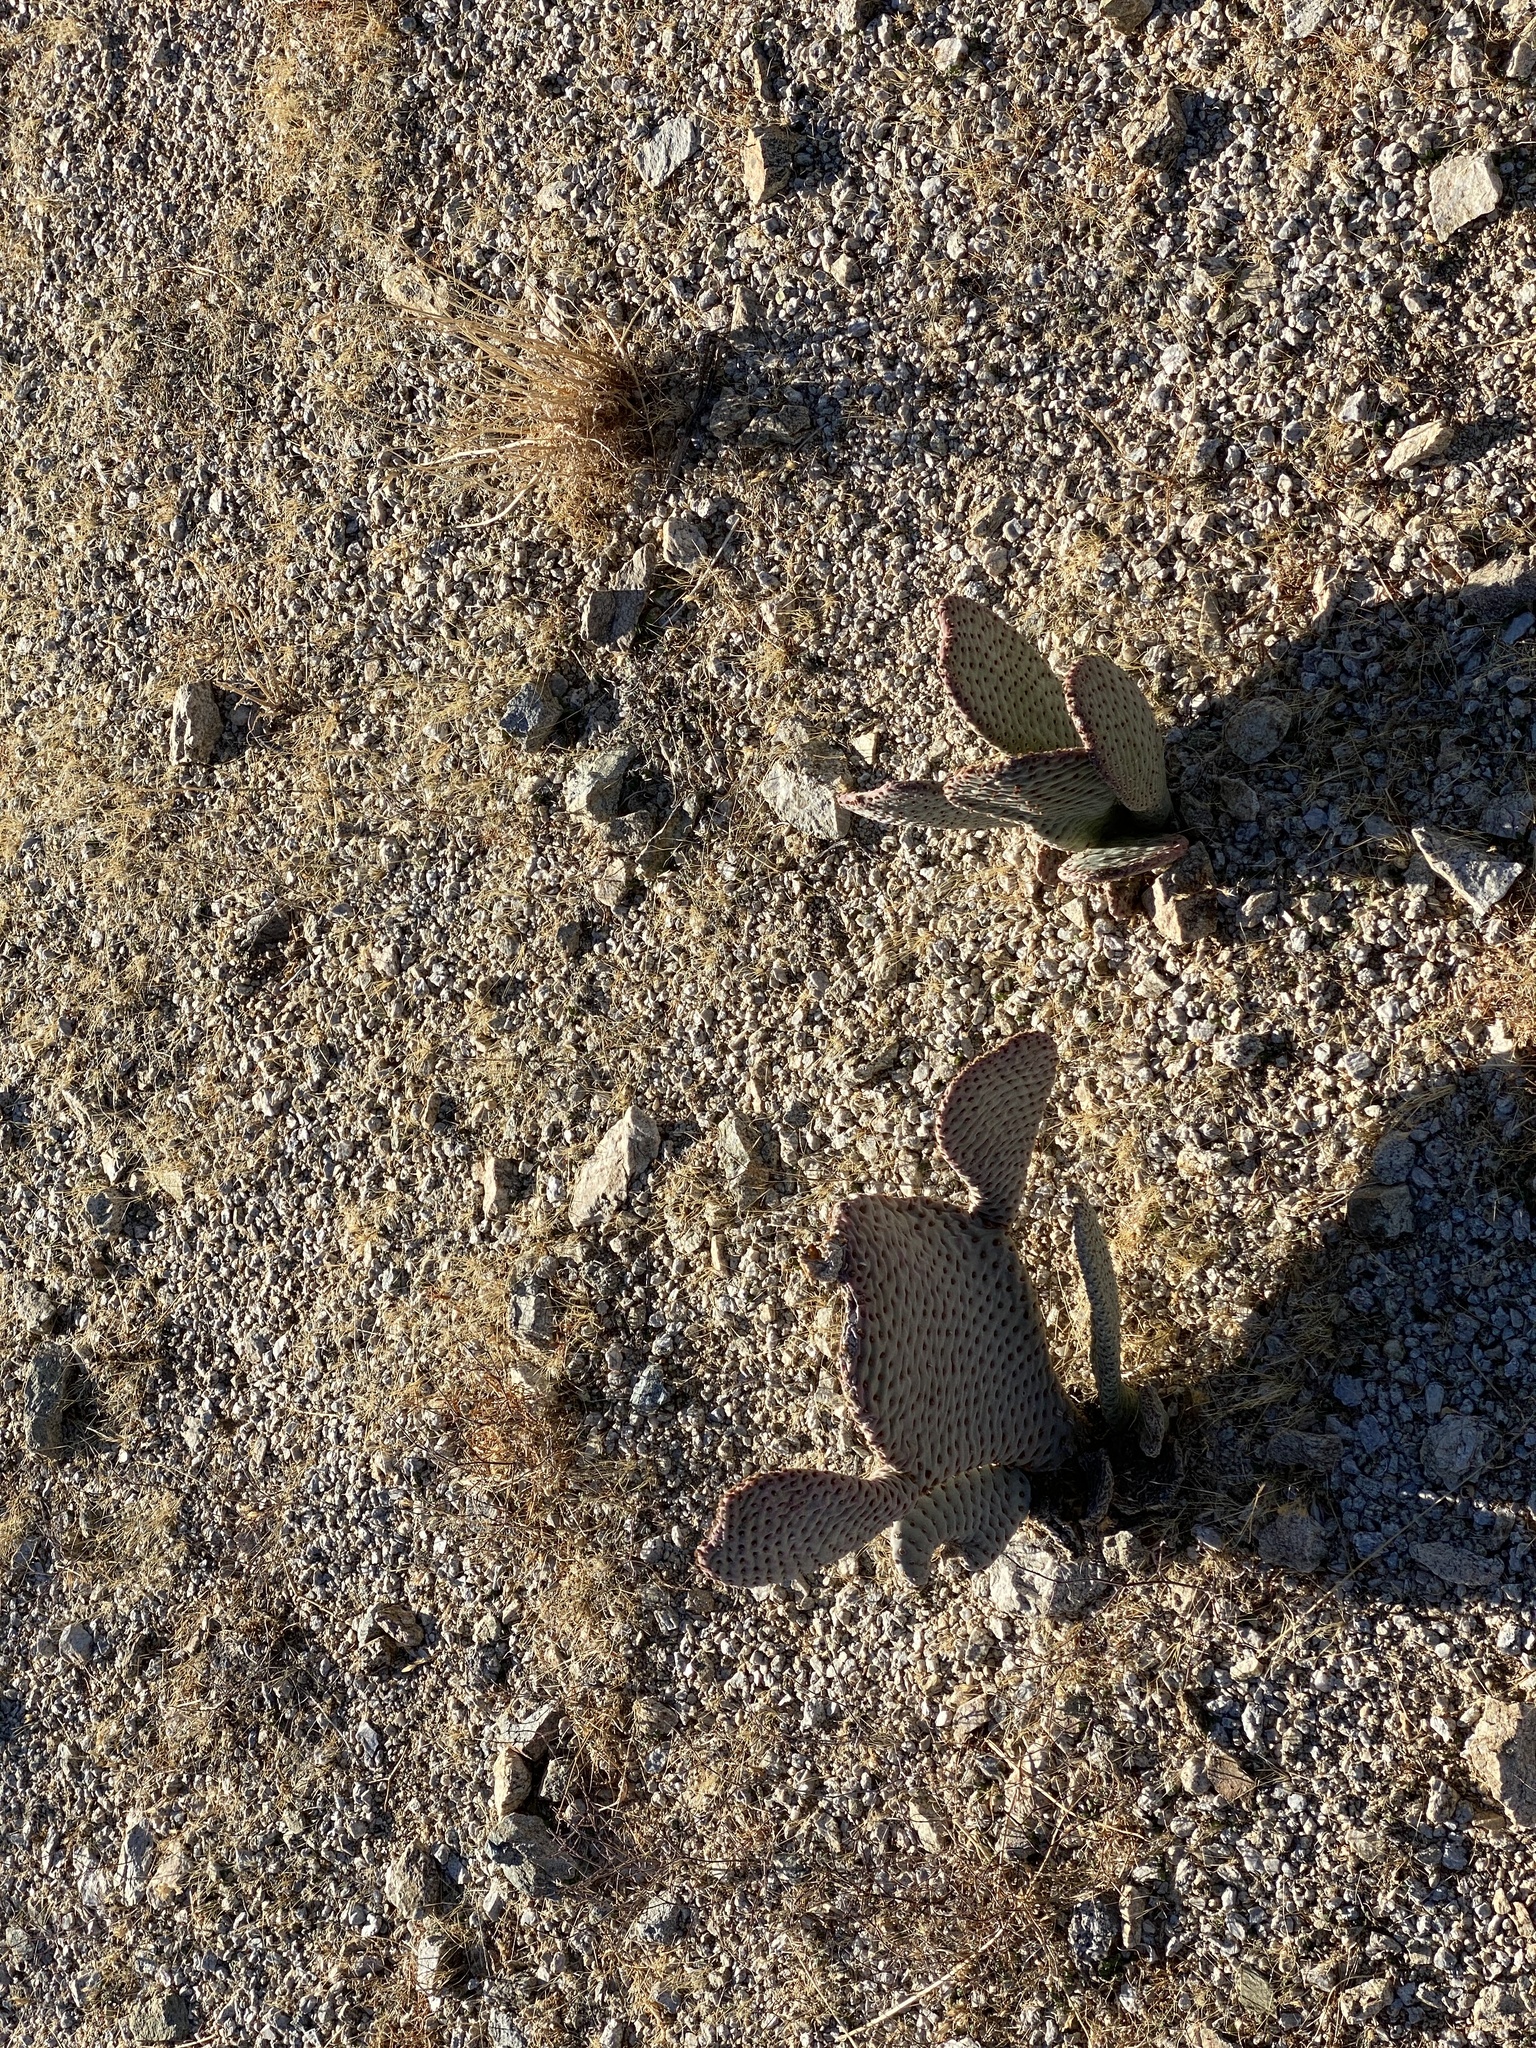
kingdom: Plantae
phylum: Tracheophyta
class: Magnoliopsida
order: Caryophyllales
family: Cactaceae
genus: Opuntia
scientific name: Opuntia basilaris
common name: Beavertail prickly-pear
